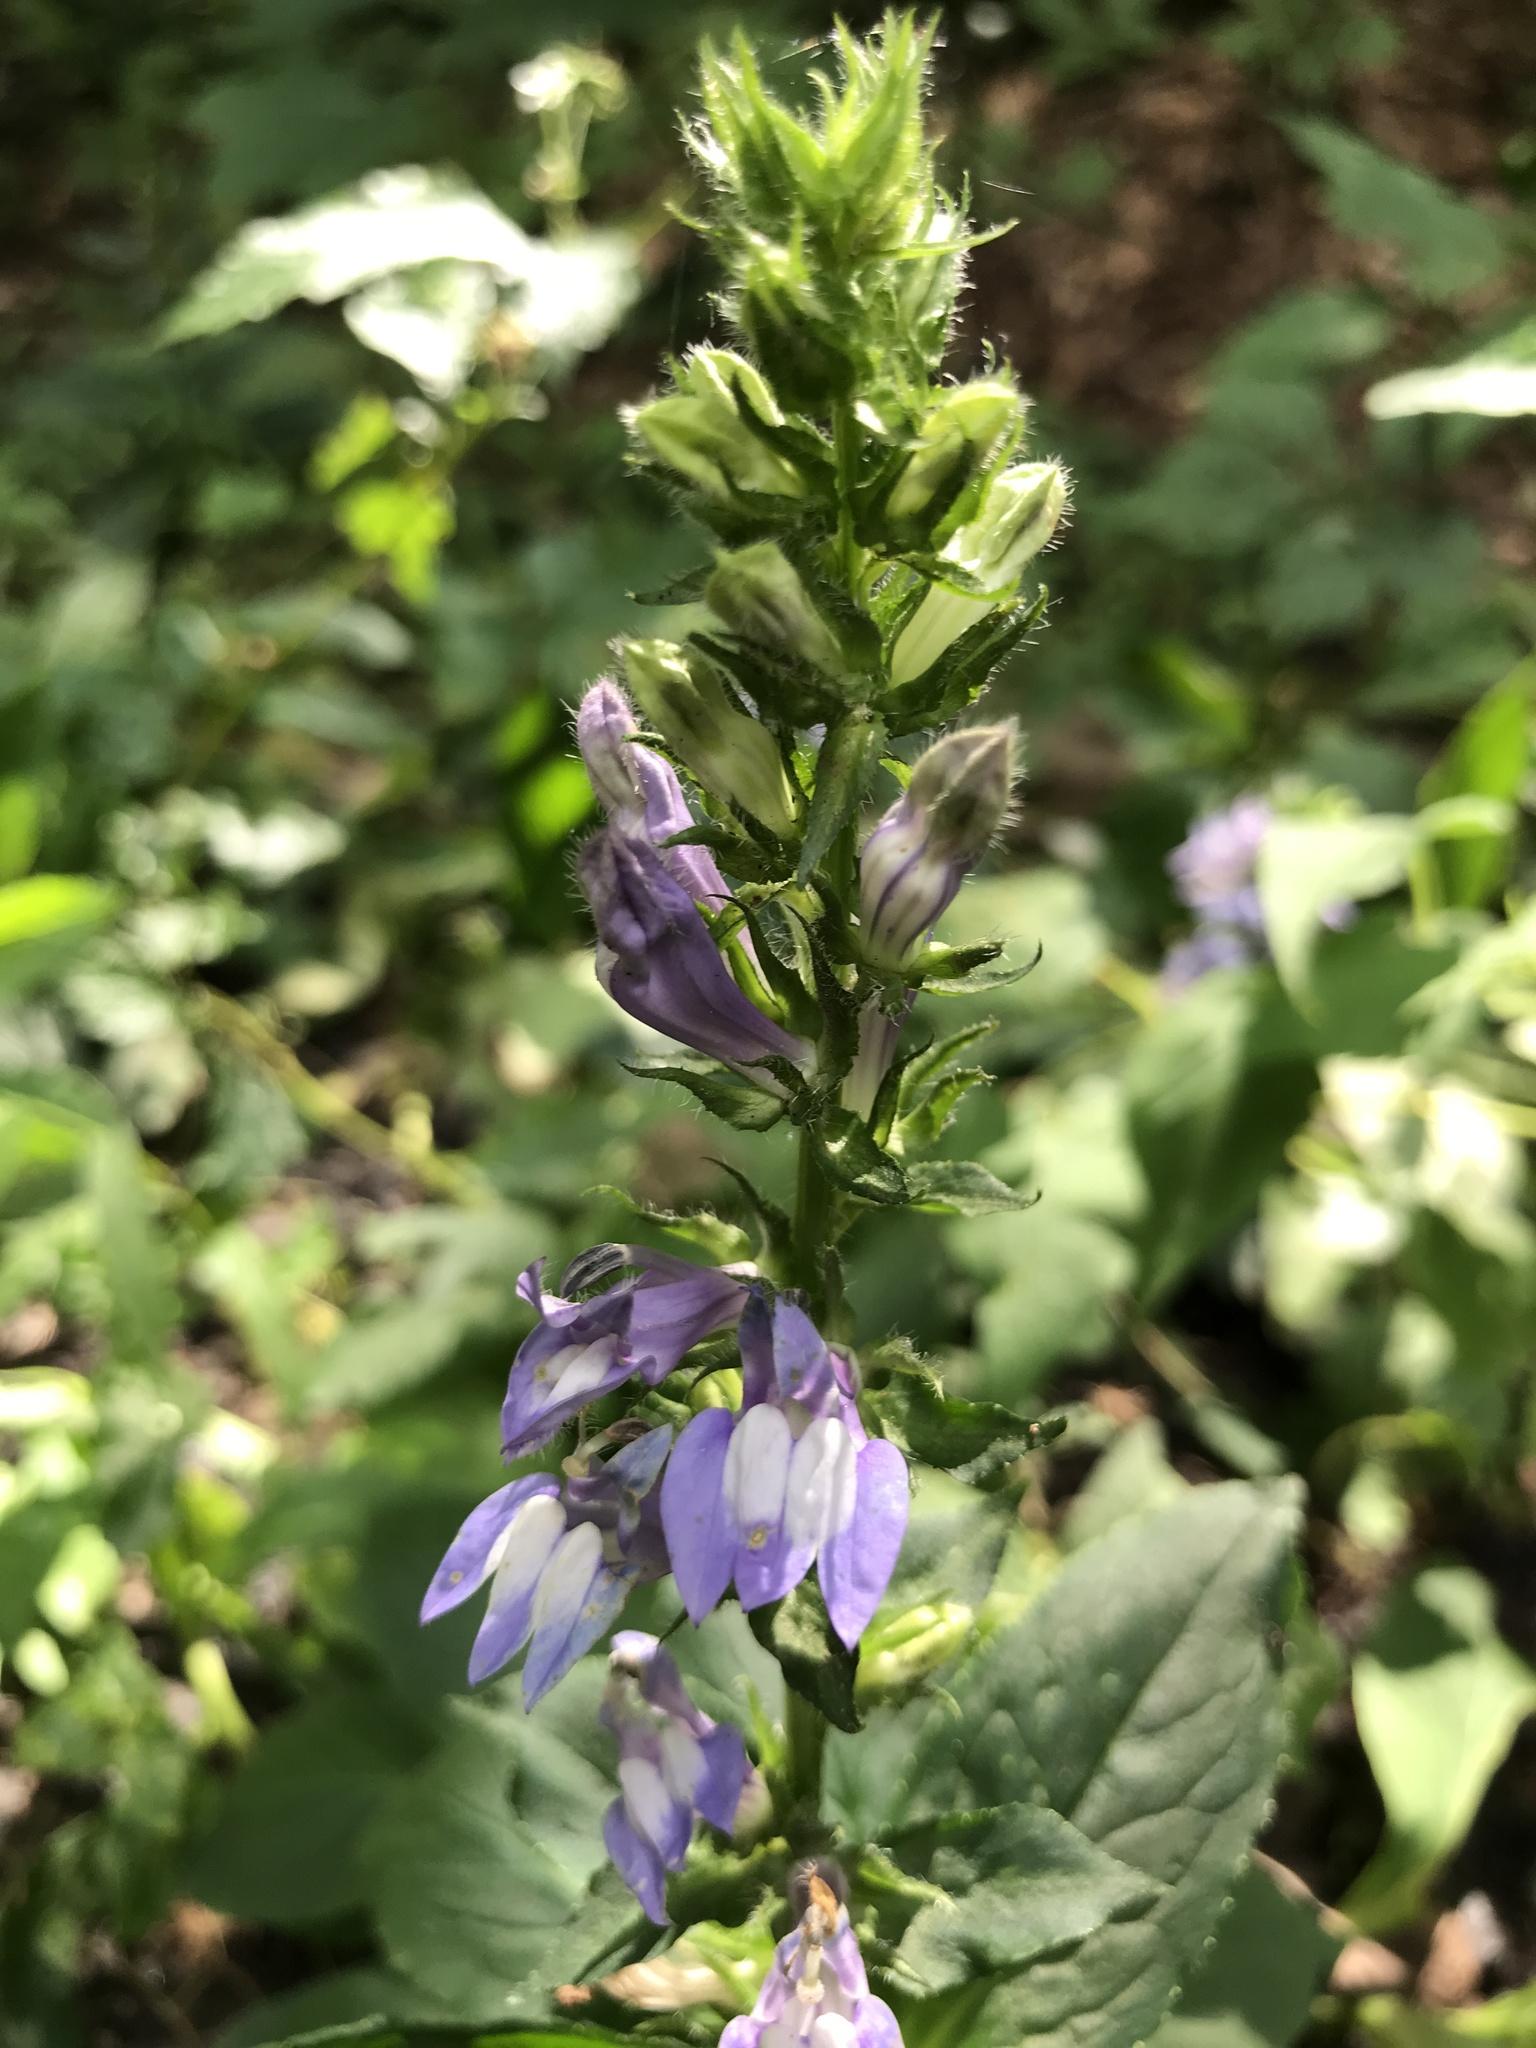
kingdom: Plantae
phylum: Tracheophyta
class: Magnoliopsida
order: Asterales
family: Campanulaceae
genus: Lobelia
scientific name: Lobelia siphilitica
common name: Great lobelia
